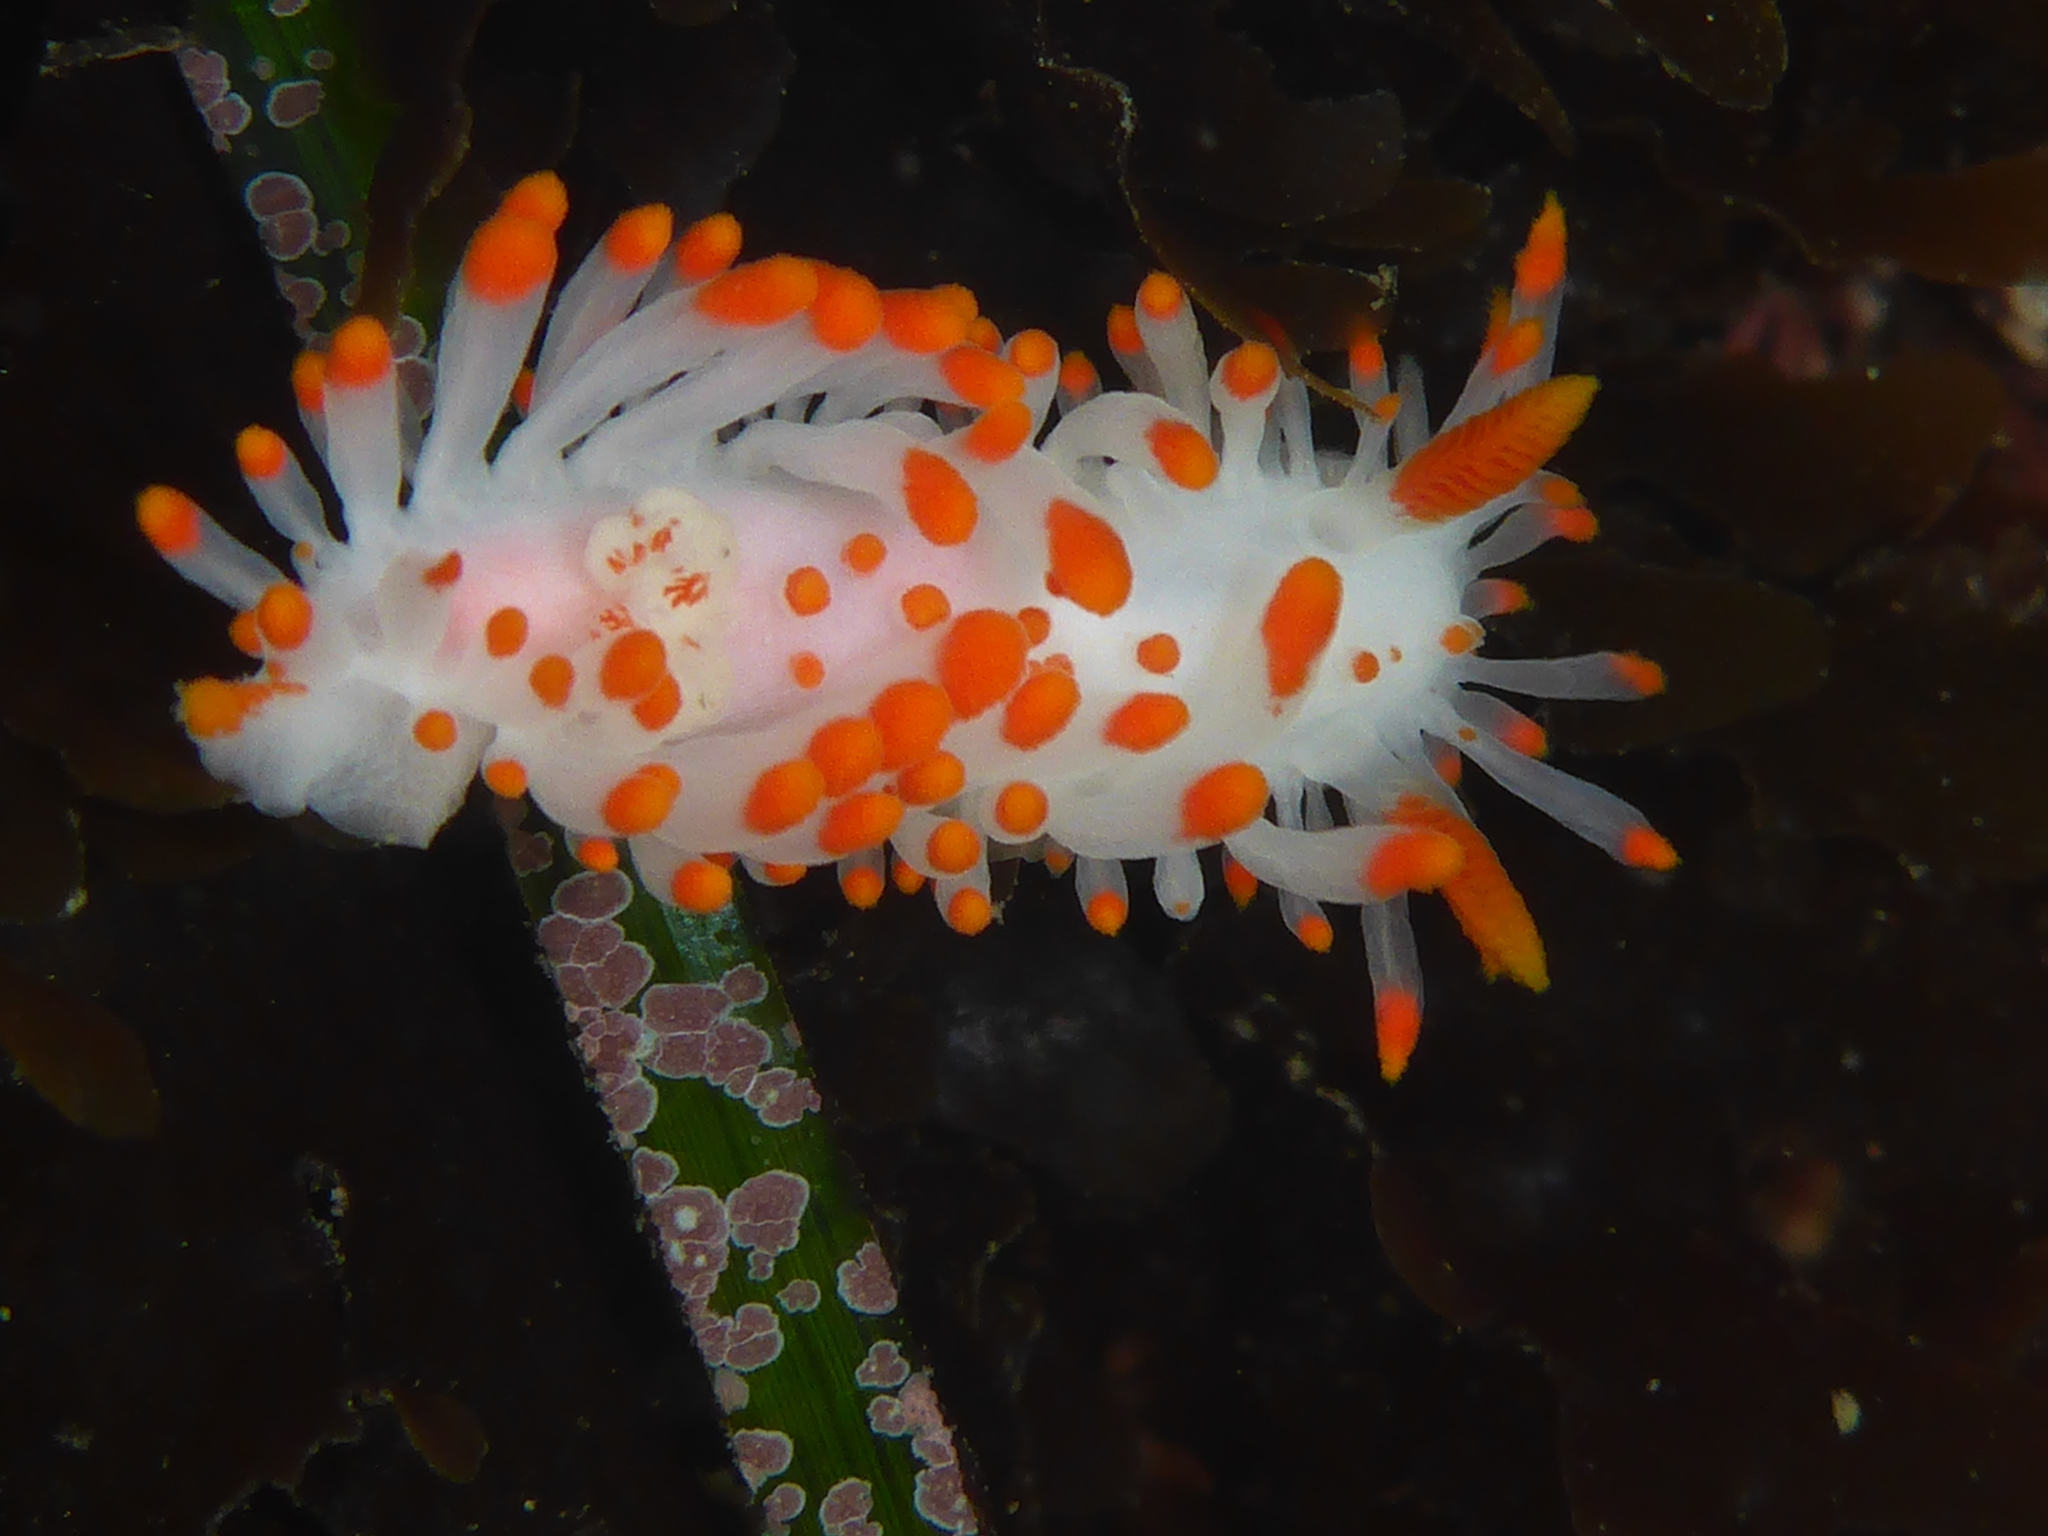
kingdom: Animalia
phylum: Mollusca
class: Gastropoda
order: Nudibranchia
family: Polyceridae
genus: Limacia
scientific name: Limacia mcdonaldi
